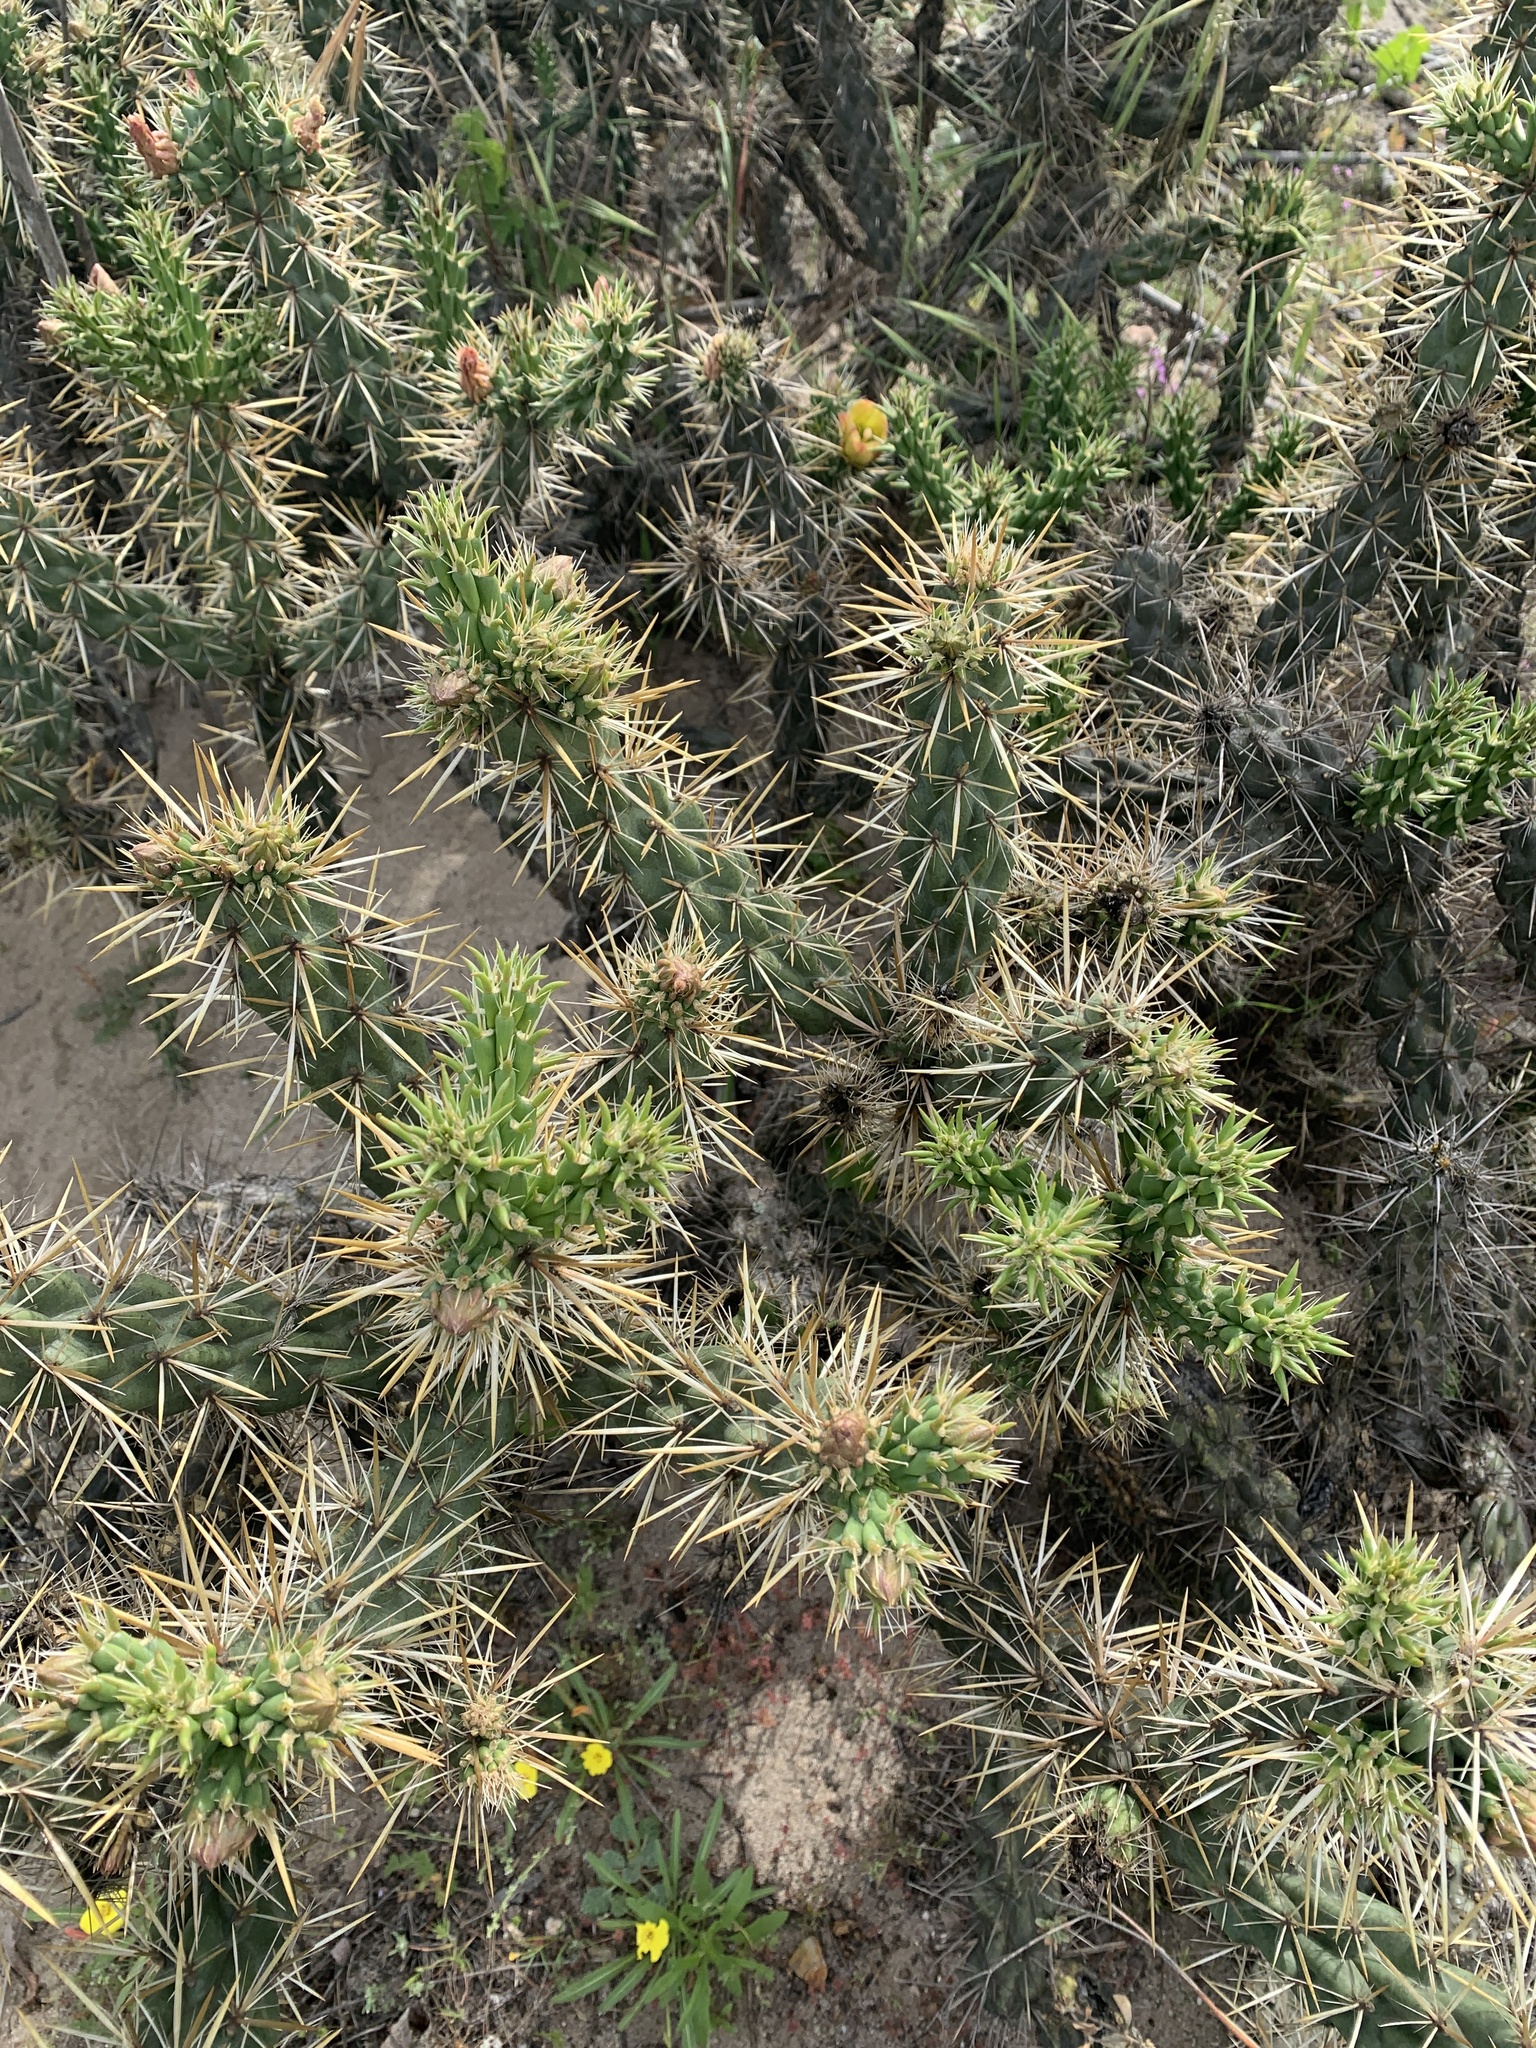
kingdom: Plantae
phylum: Tracheophyta
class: Magnoliopsida
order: Caryophyllales
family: Cactaceae
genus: Cylindropuntia
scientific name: Cylindropuntia bernardina
